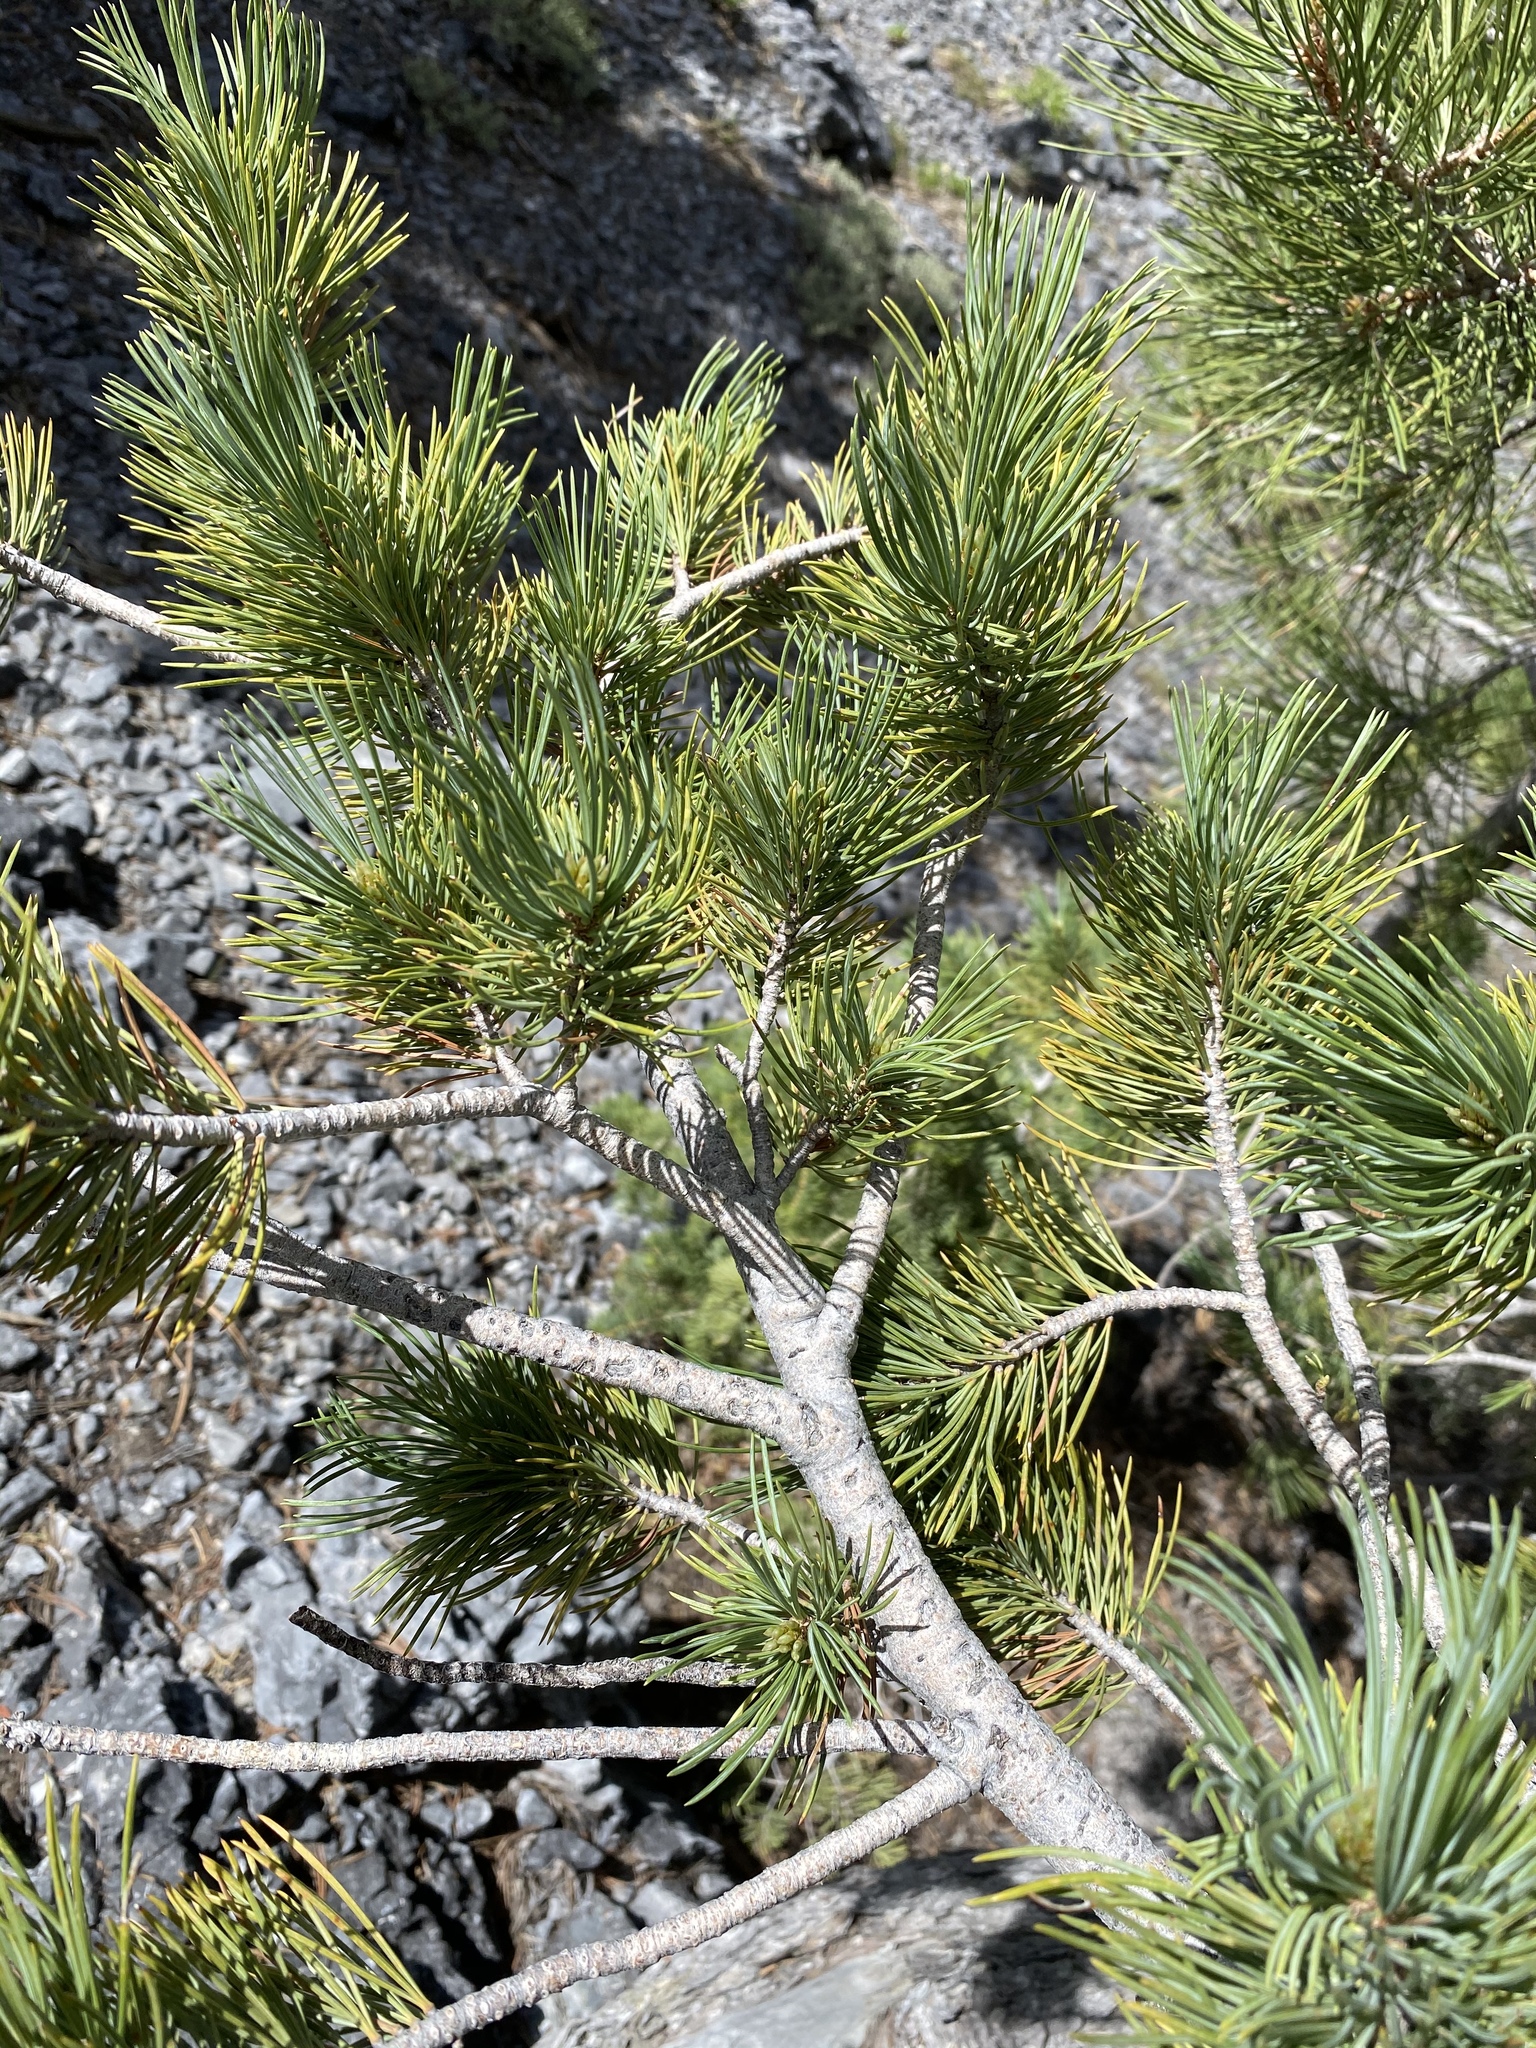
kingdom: Plantae
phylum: Tracheophyta
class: Pinopsida
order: Pinales
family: Pinaceae
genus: Pinus
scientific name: Pinus flexilis
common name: Limber pine
